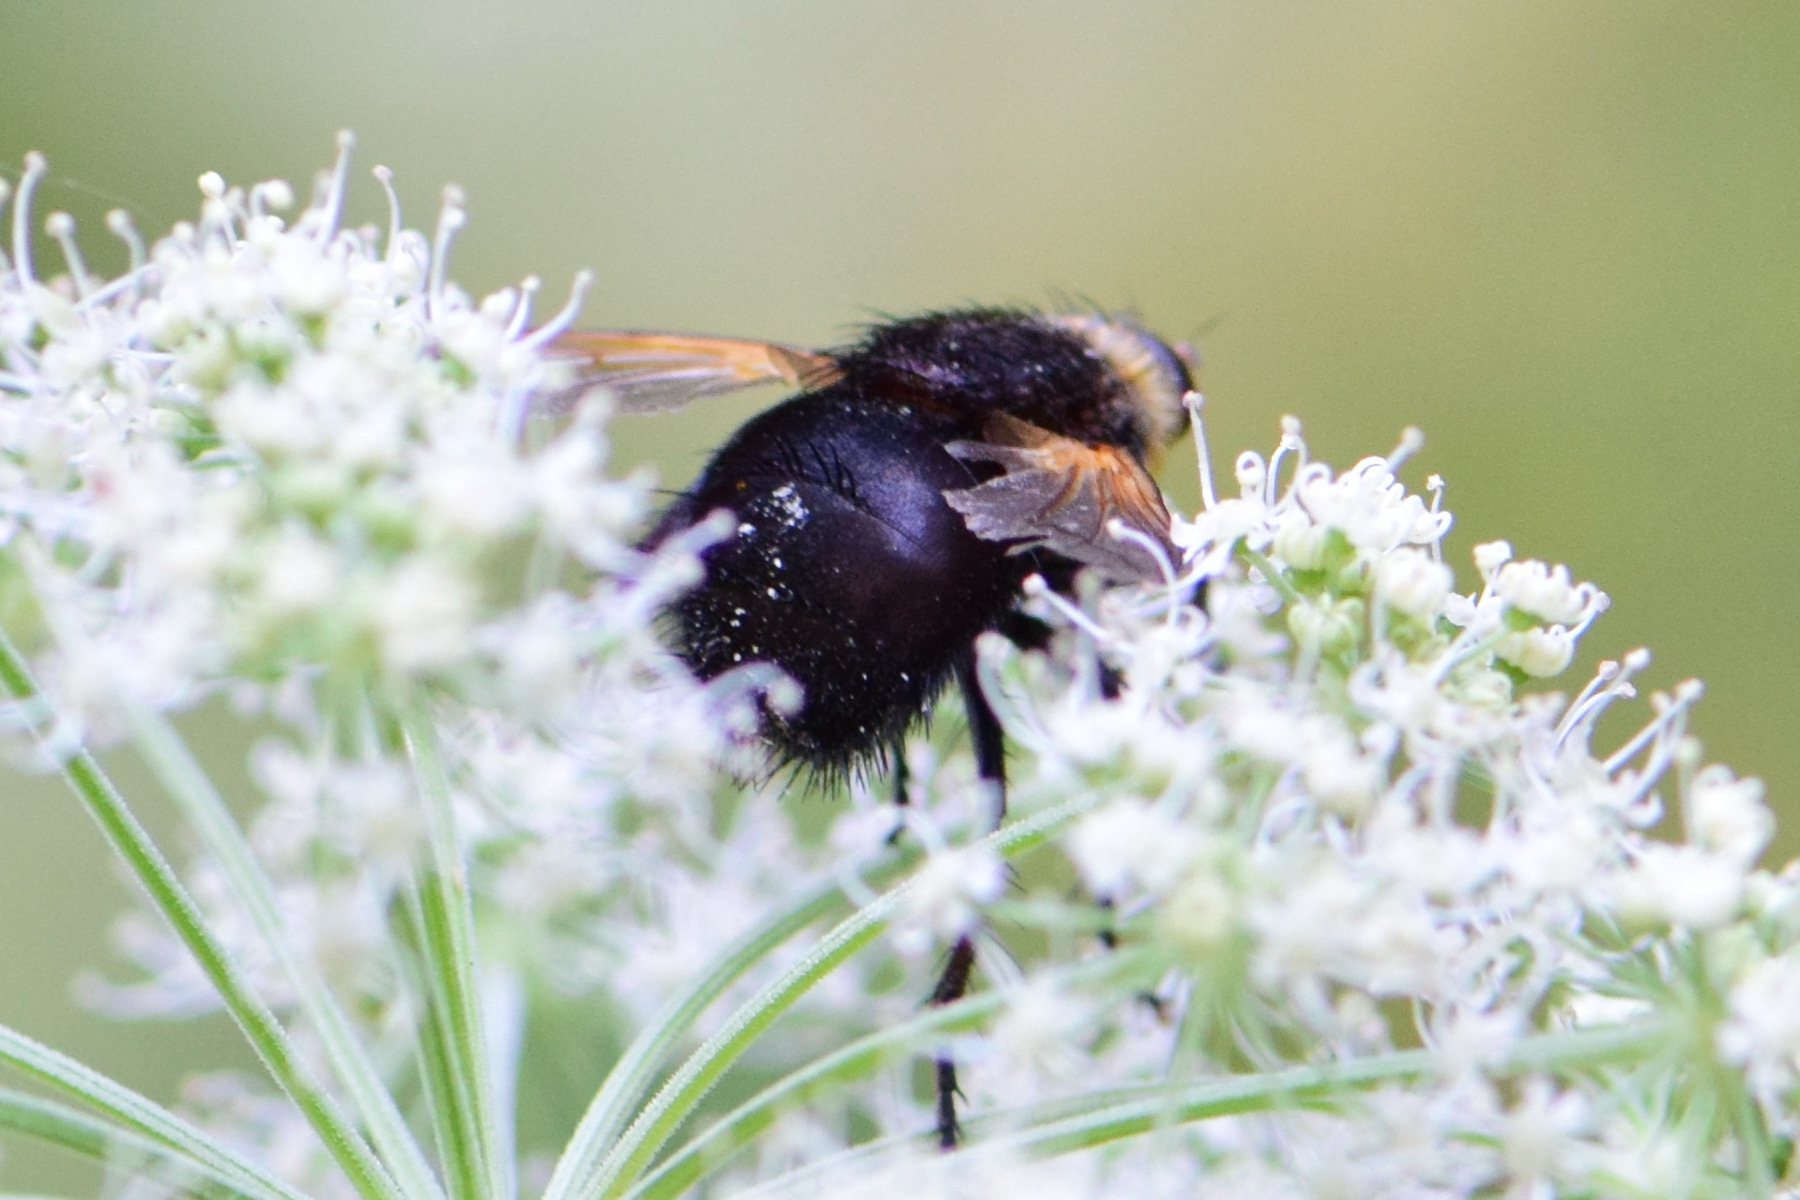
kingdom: Animalia
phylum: Arthropoda
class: Insecta
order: Diptera
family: Tachinidae
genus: Tachina
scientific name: Tachina grossa
